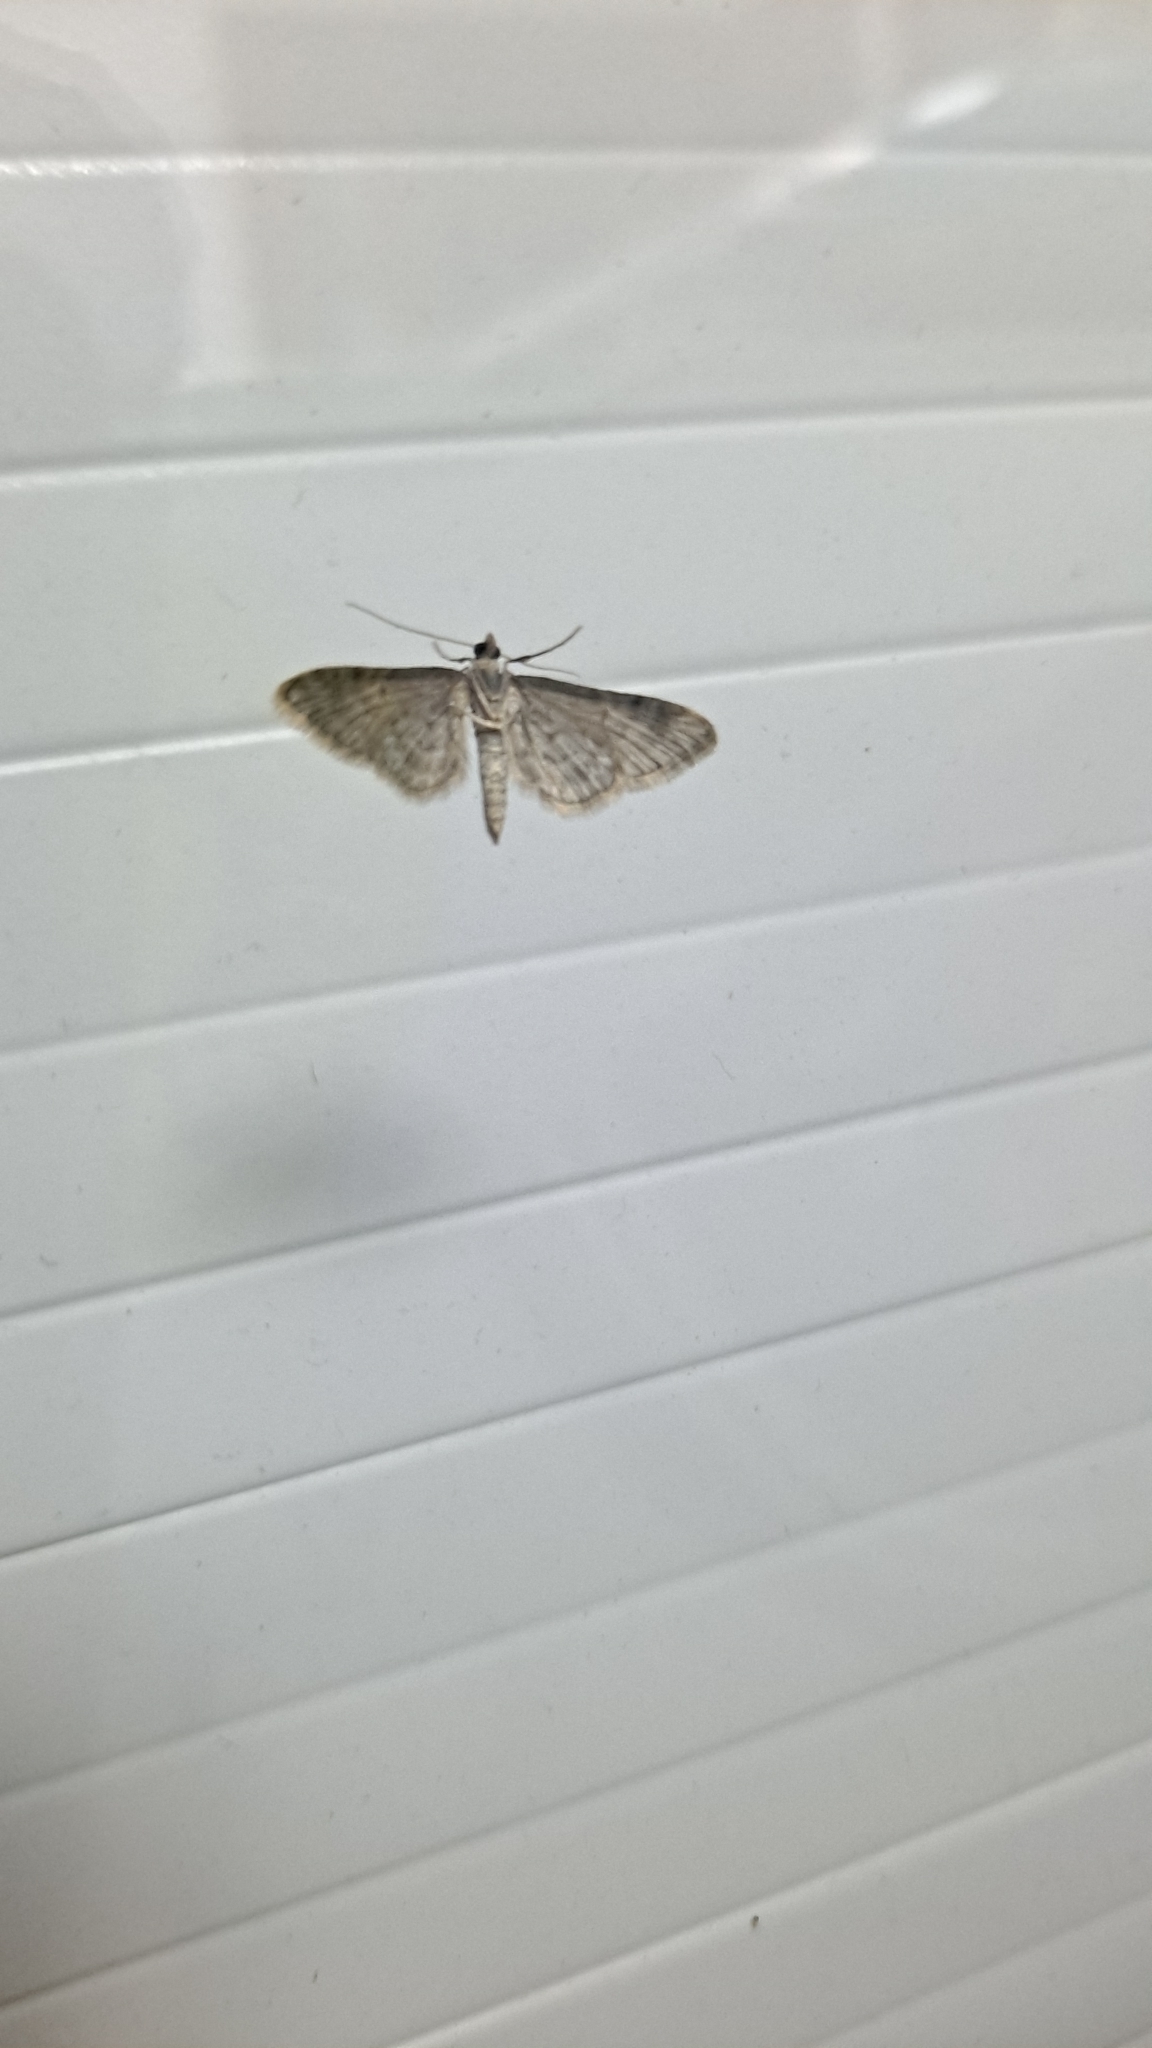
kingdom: Animalia
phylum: Arthropoda
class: Insecta
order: Lepidoptera
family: Geometridae
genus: Gymnoscelis
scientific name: Gymnoscelis rufifasciata
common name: Double-striped pug
